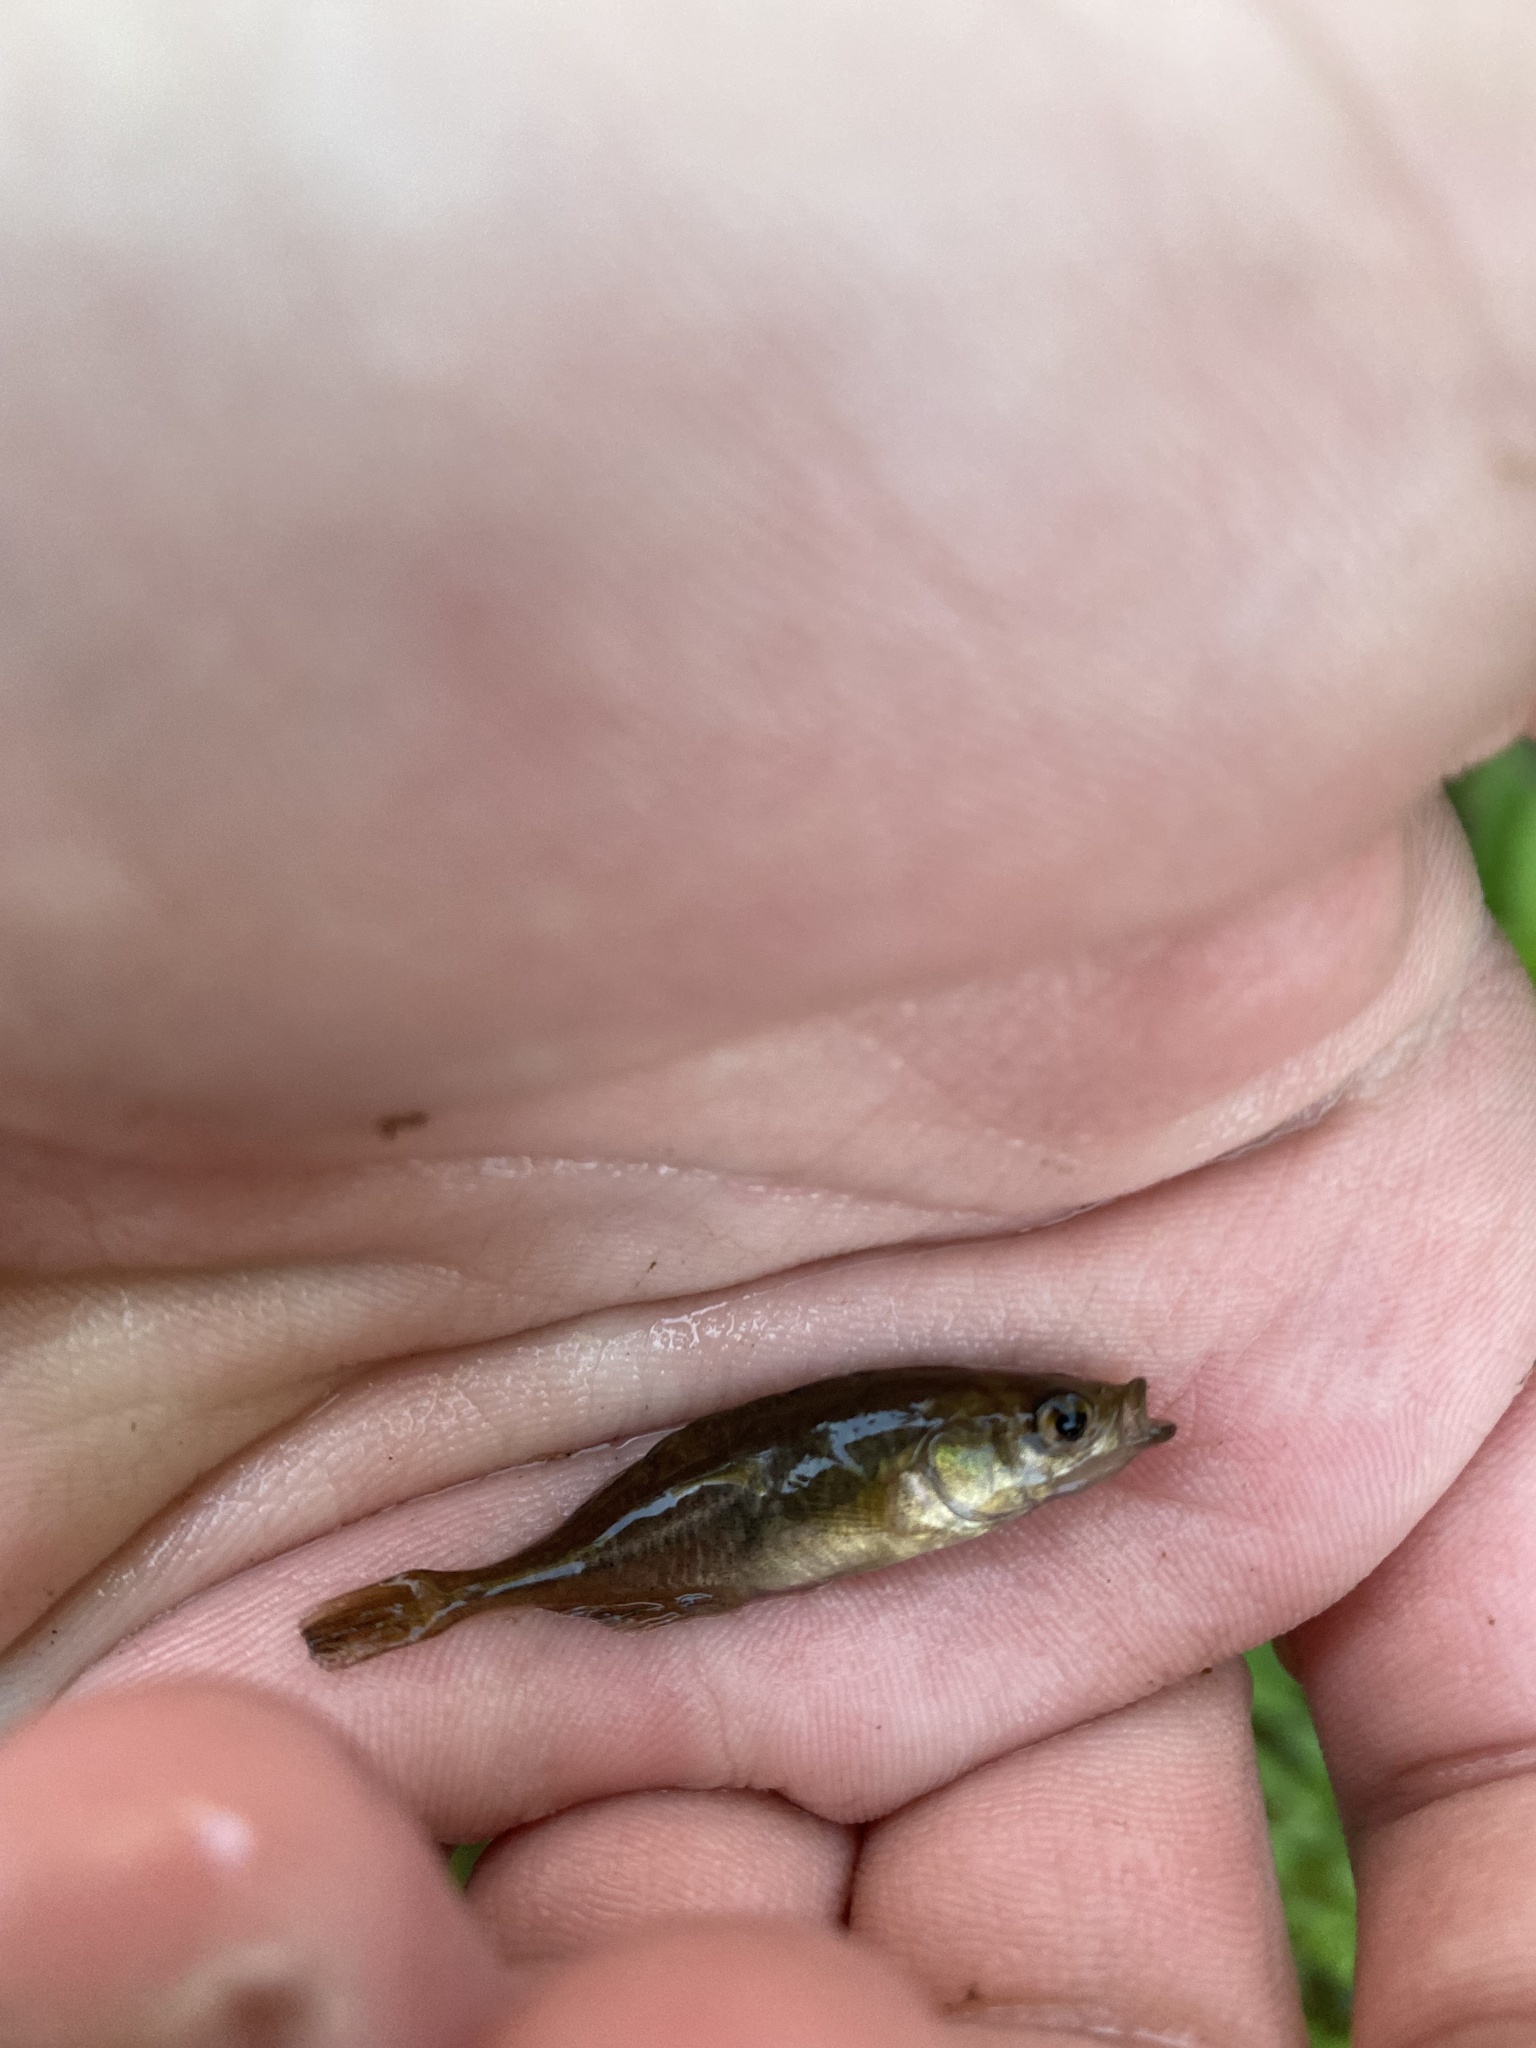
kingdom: Animalia
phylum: Chordata
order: Gasterosteiformes
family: Gasterosteidae
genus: Culaea
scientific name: Culaea inconstans
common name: Brook stickleback
